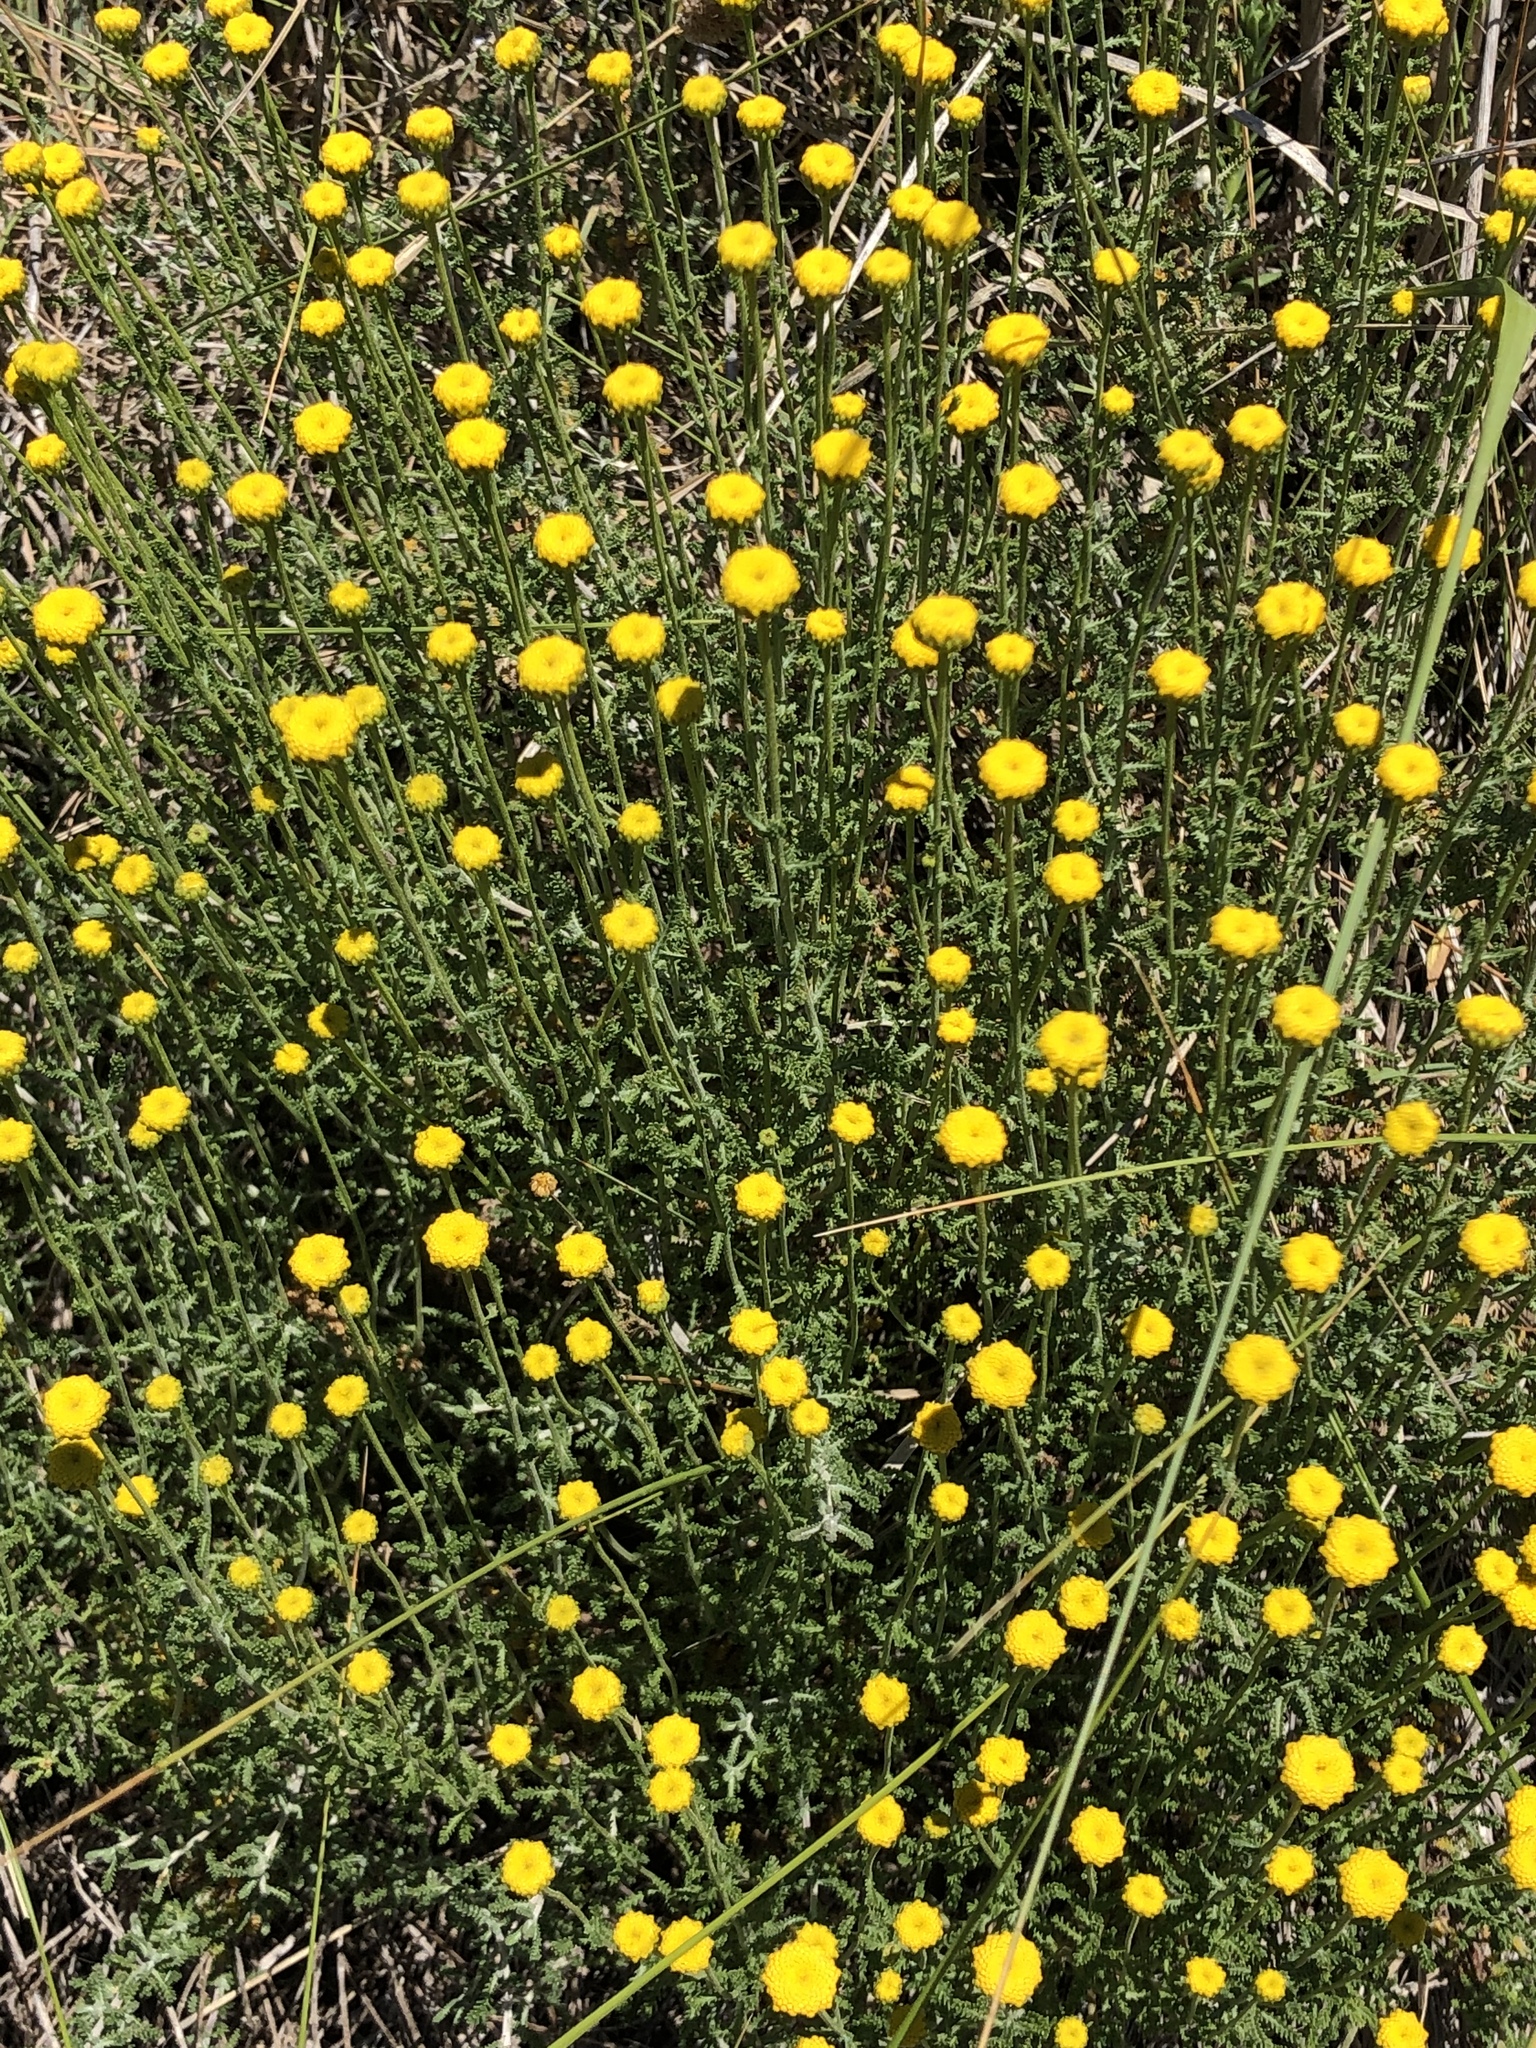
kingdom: Plantae
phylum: Tracheophyta
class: Magnoliopsida
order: Asterales
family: Asteraceae
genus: Anacyclus
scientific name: Anacyclus valentinus
